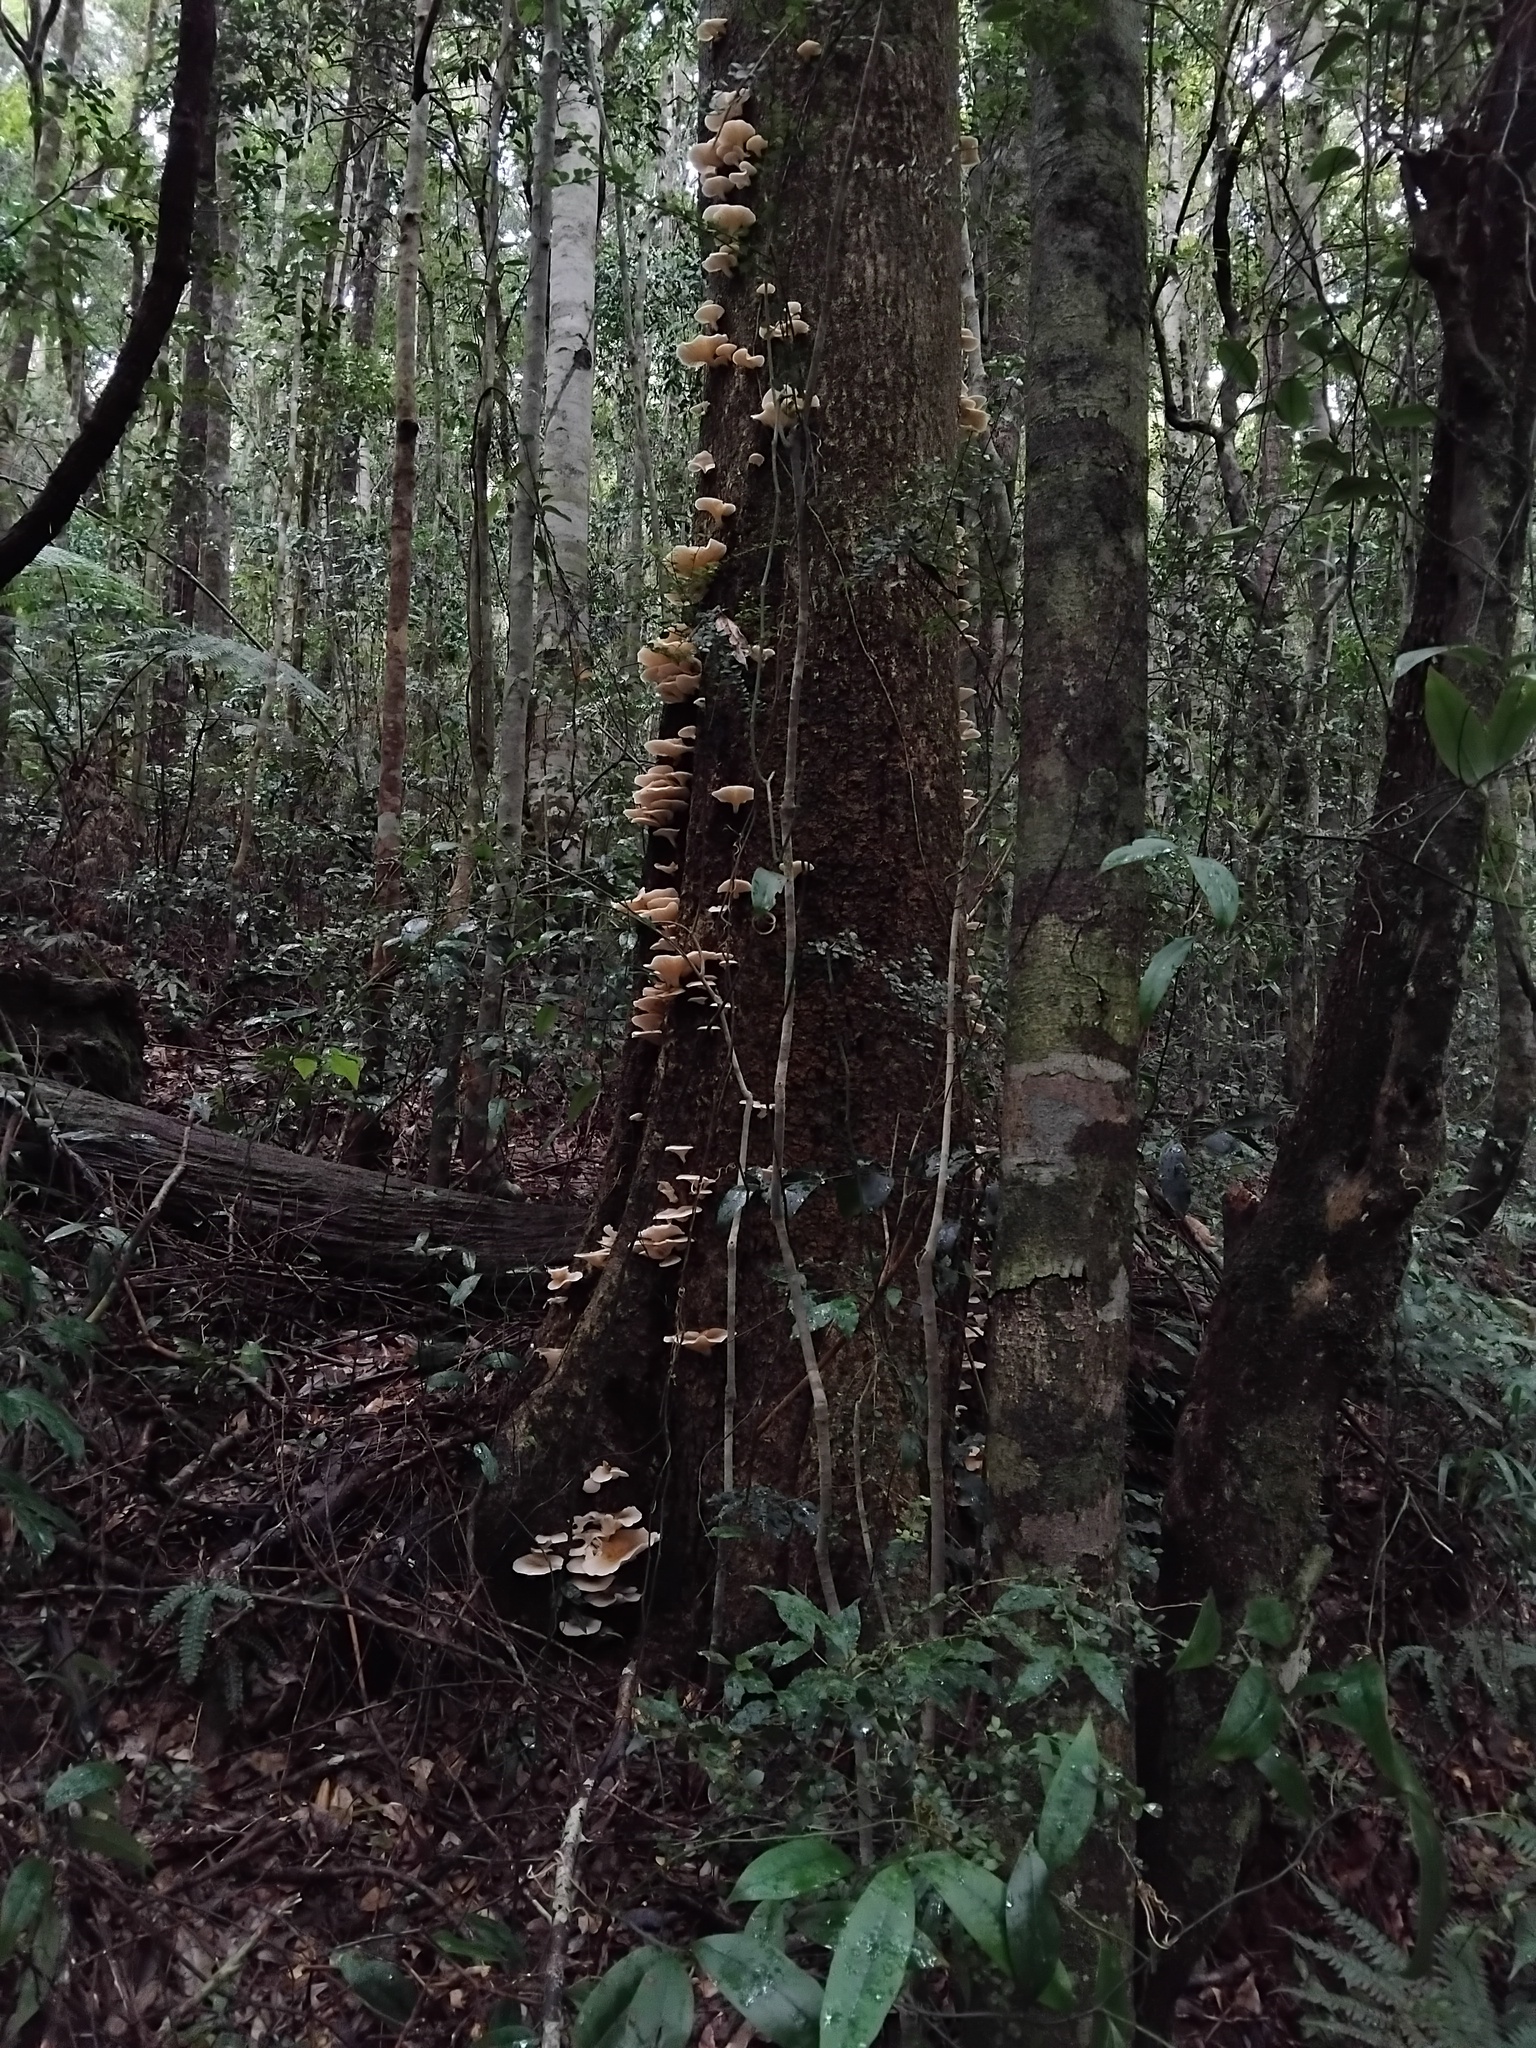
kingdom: Fungi
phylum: Basidiomycota
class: Agaricomycetes
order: Agaricales
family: Omphalotaceae
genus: Omphalotus
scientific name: Omphalotus nidiformis
